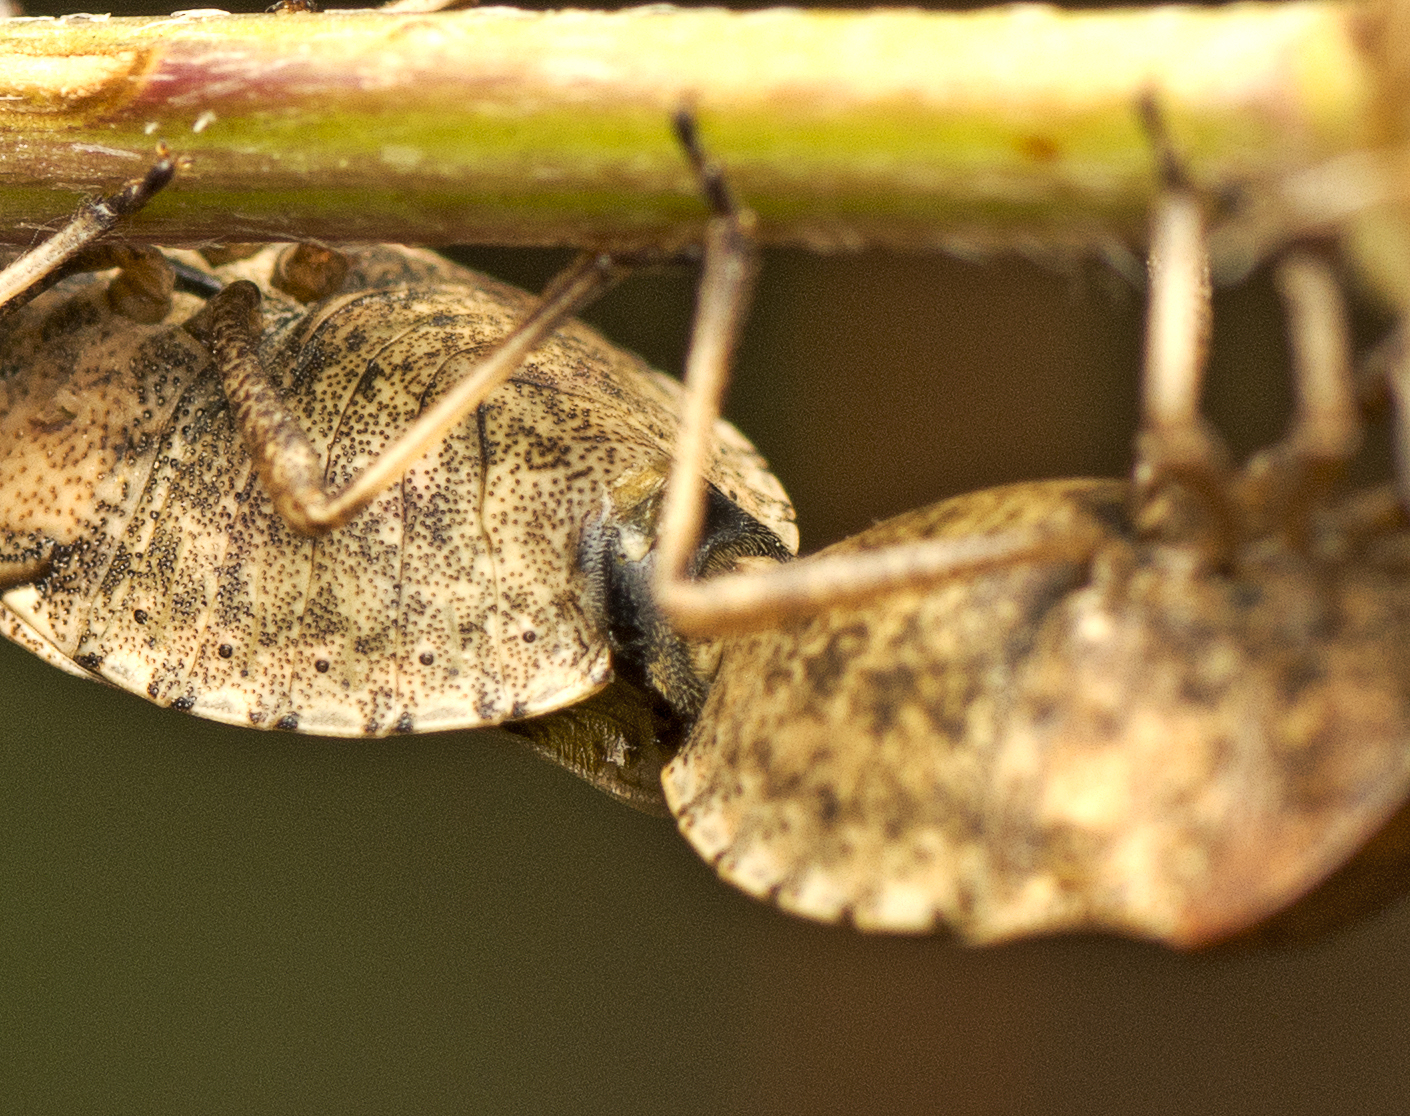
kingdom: Animalia
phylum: Arthropoda
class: Insecta
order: Hemiptera
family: Pentatomidae
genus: Dictyotus
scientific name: Dictyotus caenosus
